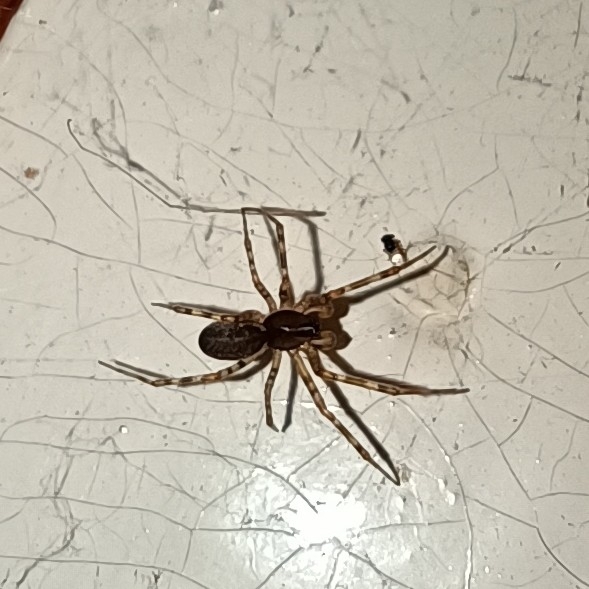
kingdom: Animalia
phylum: Arthropoda
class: Arachnida
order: Araneae
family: Linyphiidae
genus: Neriene
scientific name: Neriene montana
